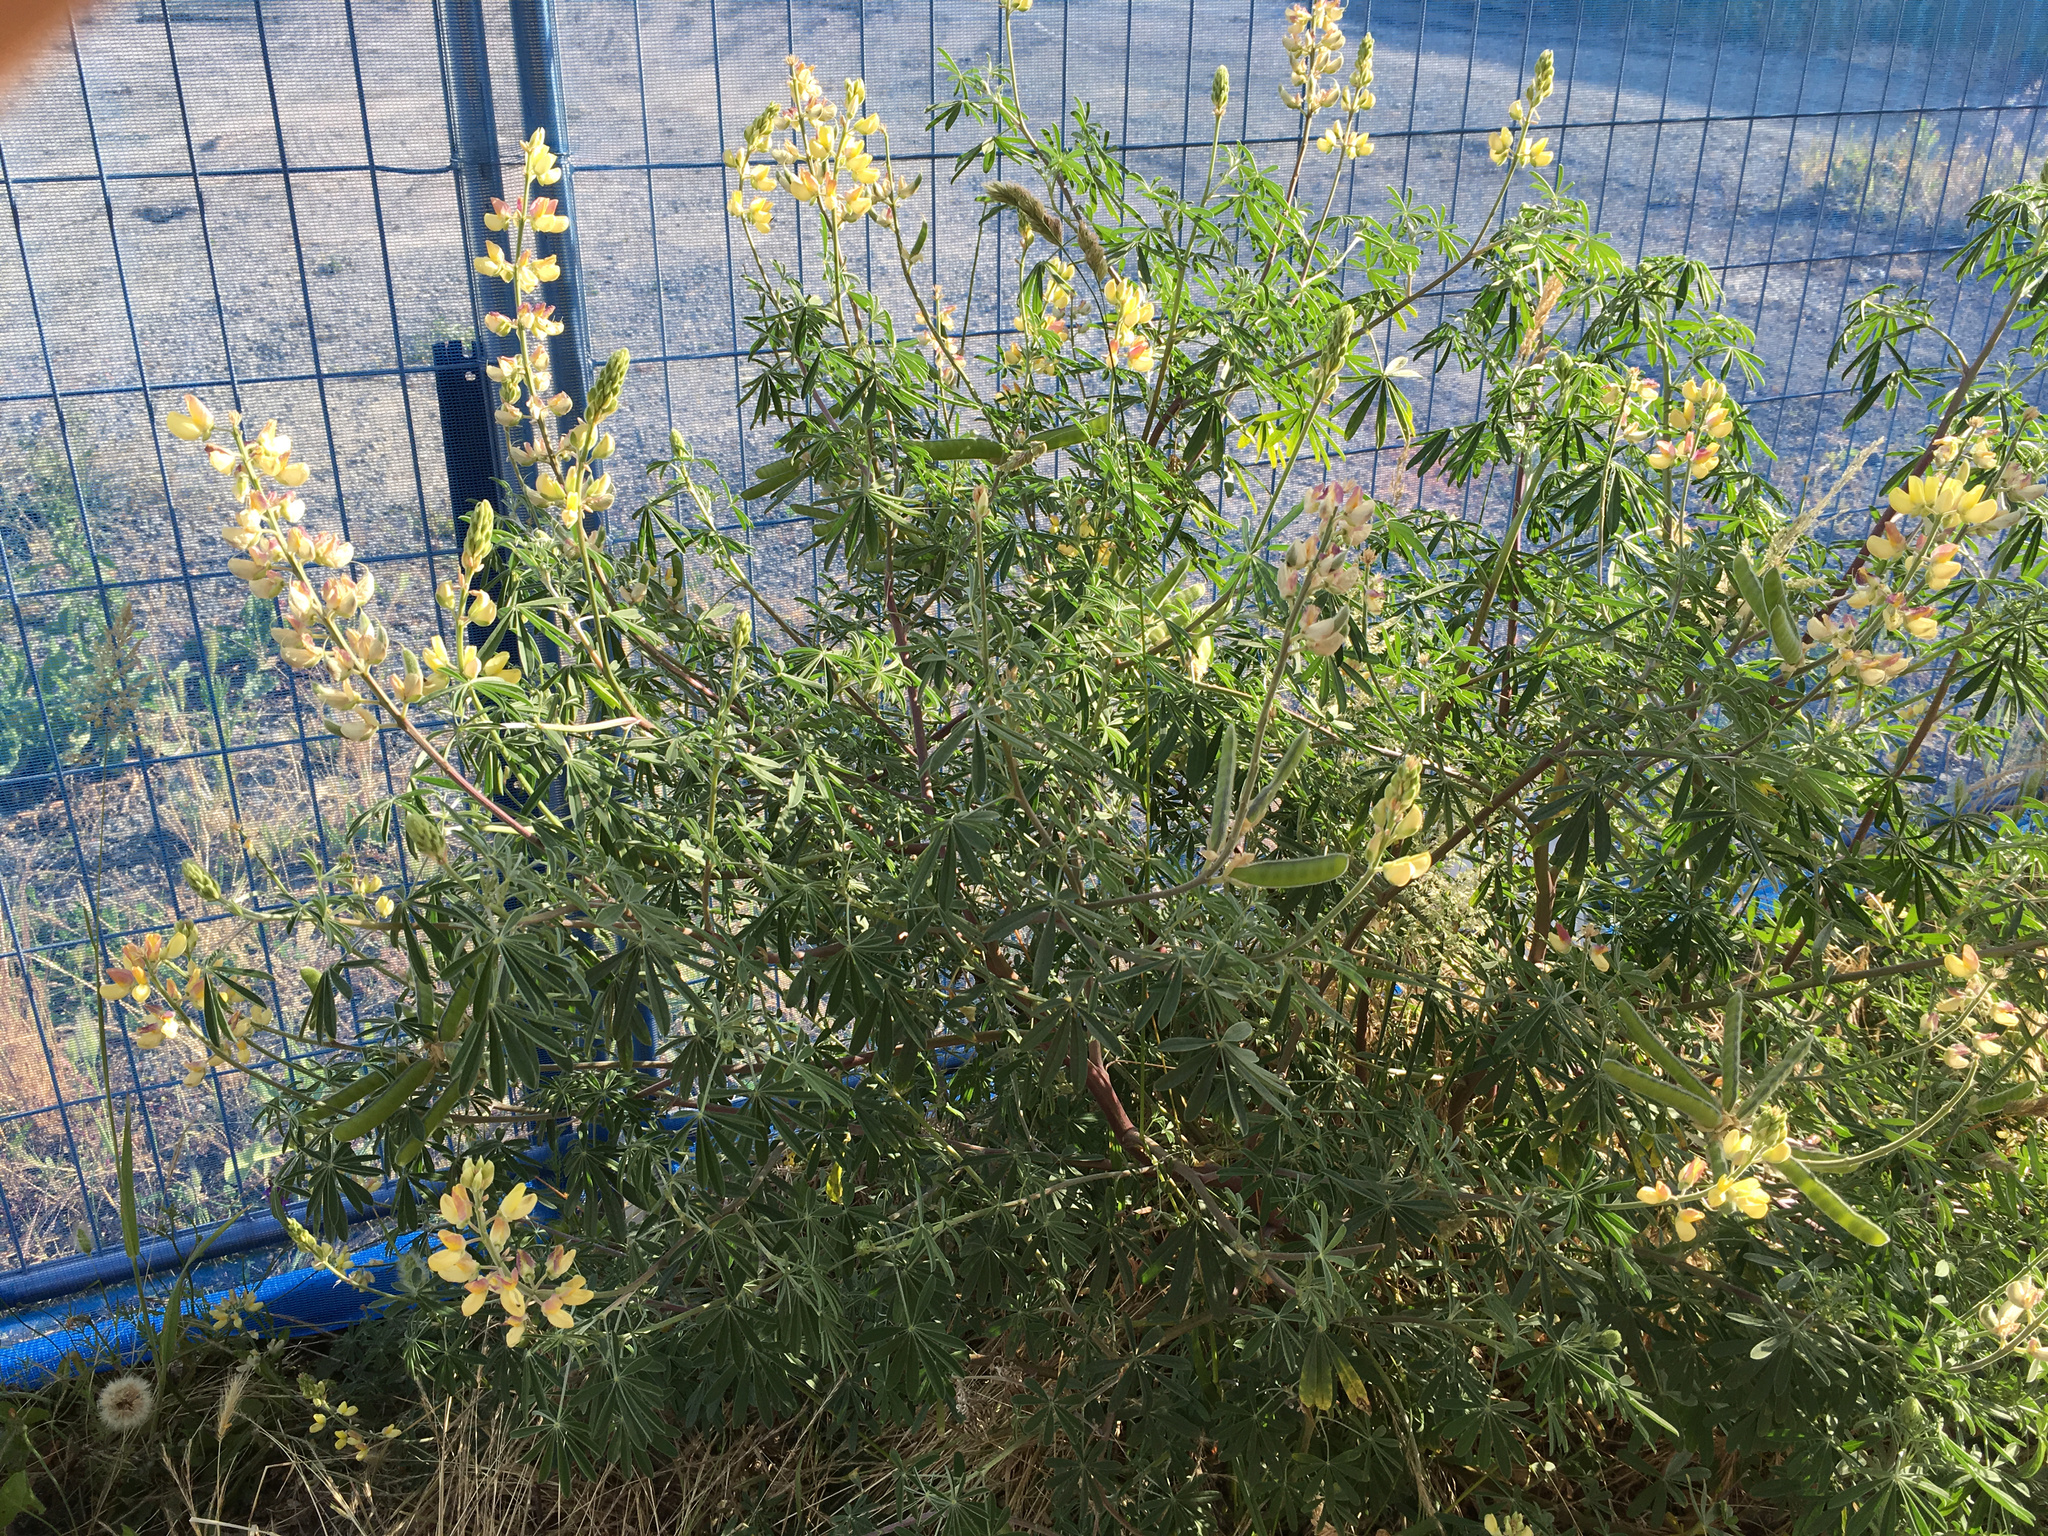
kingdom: Plantae
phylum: Tracheophyta
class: Magnoliopsida
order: Fabales
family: Fabaceae
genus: Lupinus
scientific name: Lupinus arboreus
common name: Yellow bush lupine
